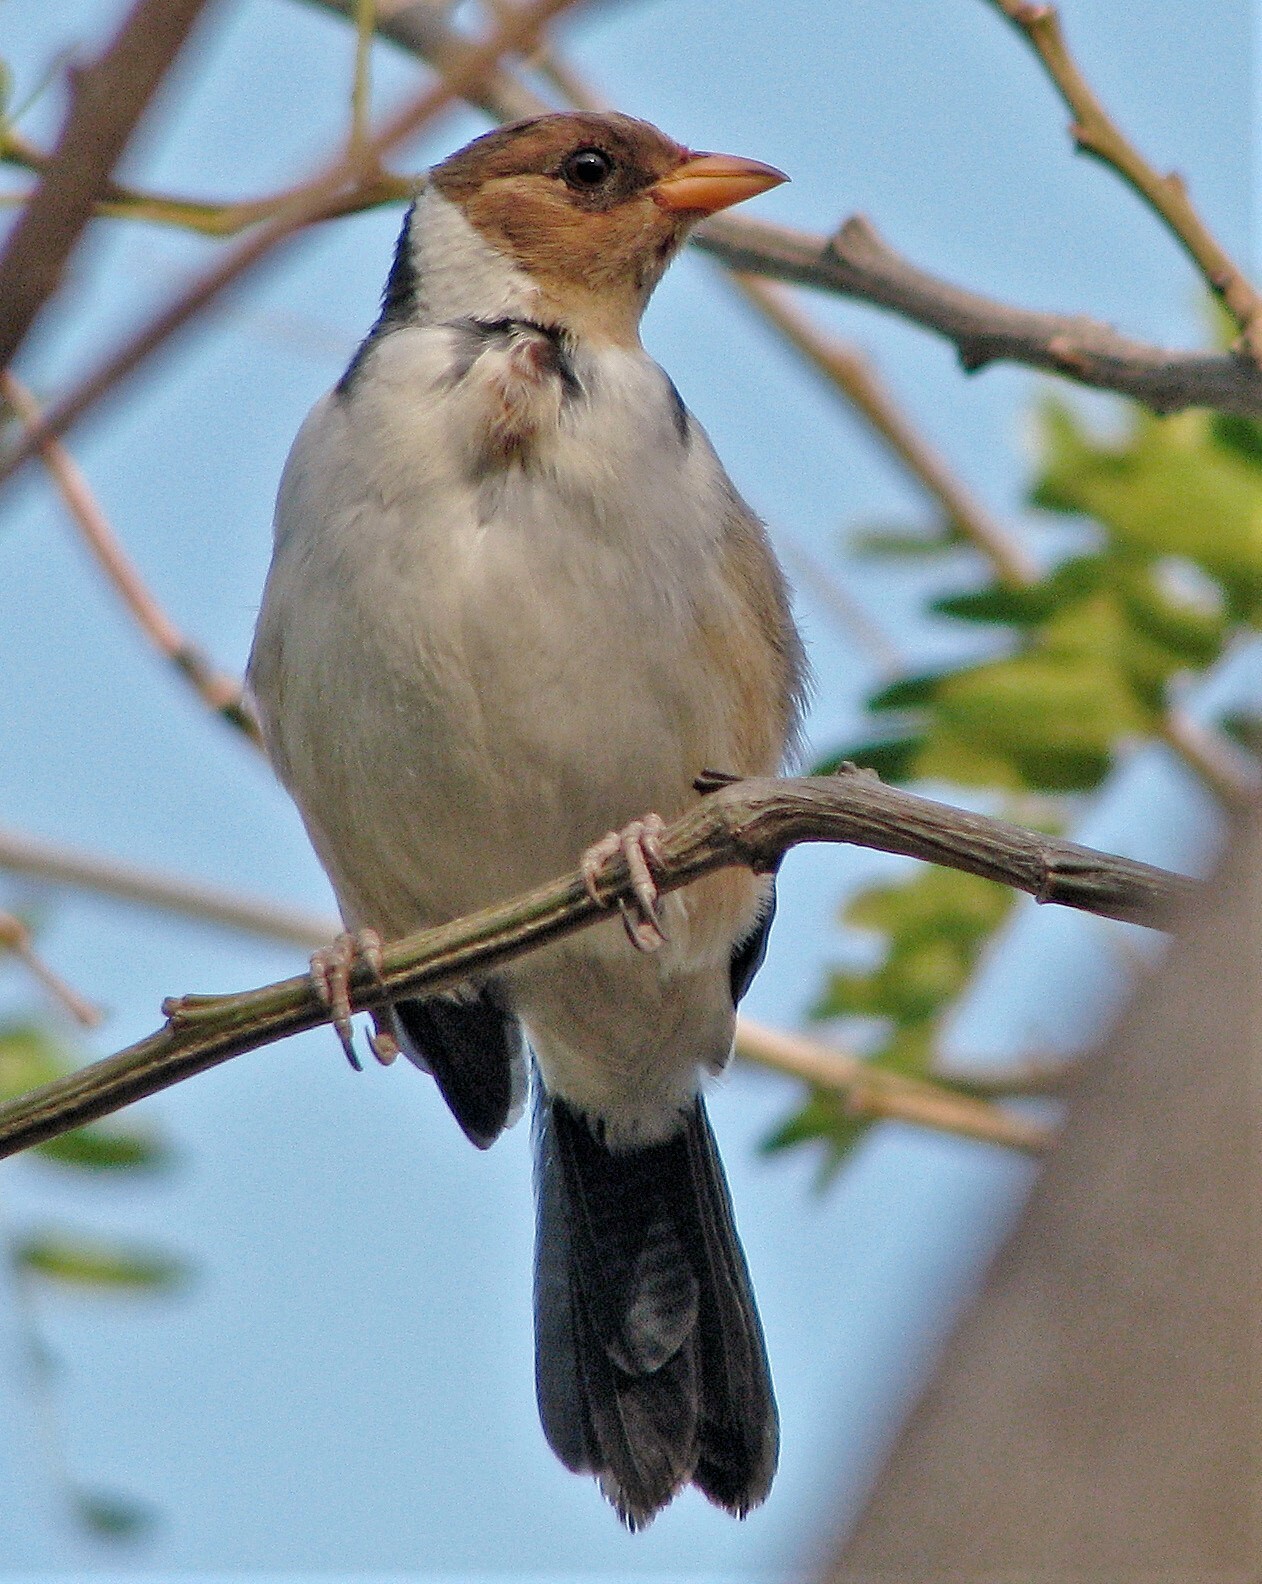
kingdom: Animalia
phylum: Chordata
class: Aves
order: Passeriformes
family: Thraupidae
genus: Paroaria
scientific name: Paroaria capitata
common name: Yellow-billed cardinal
